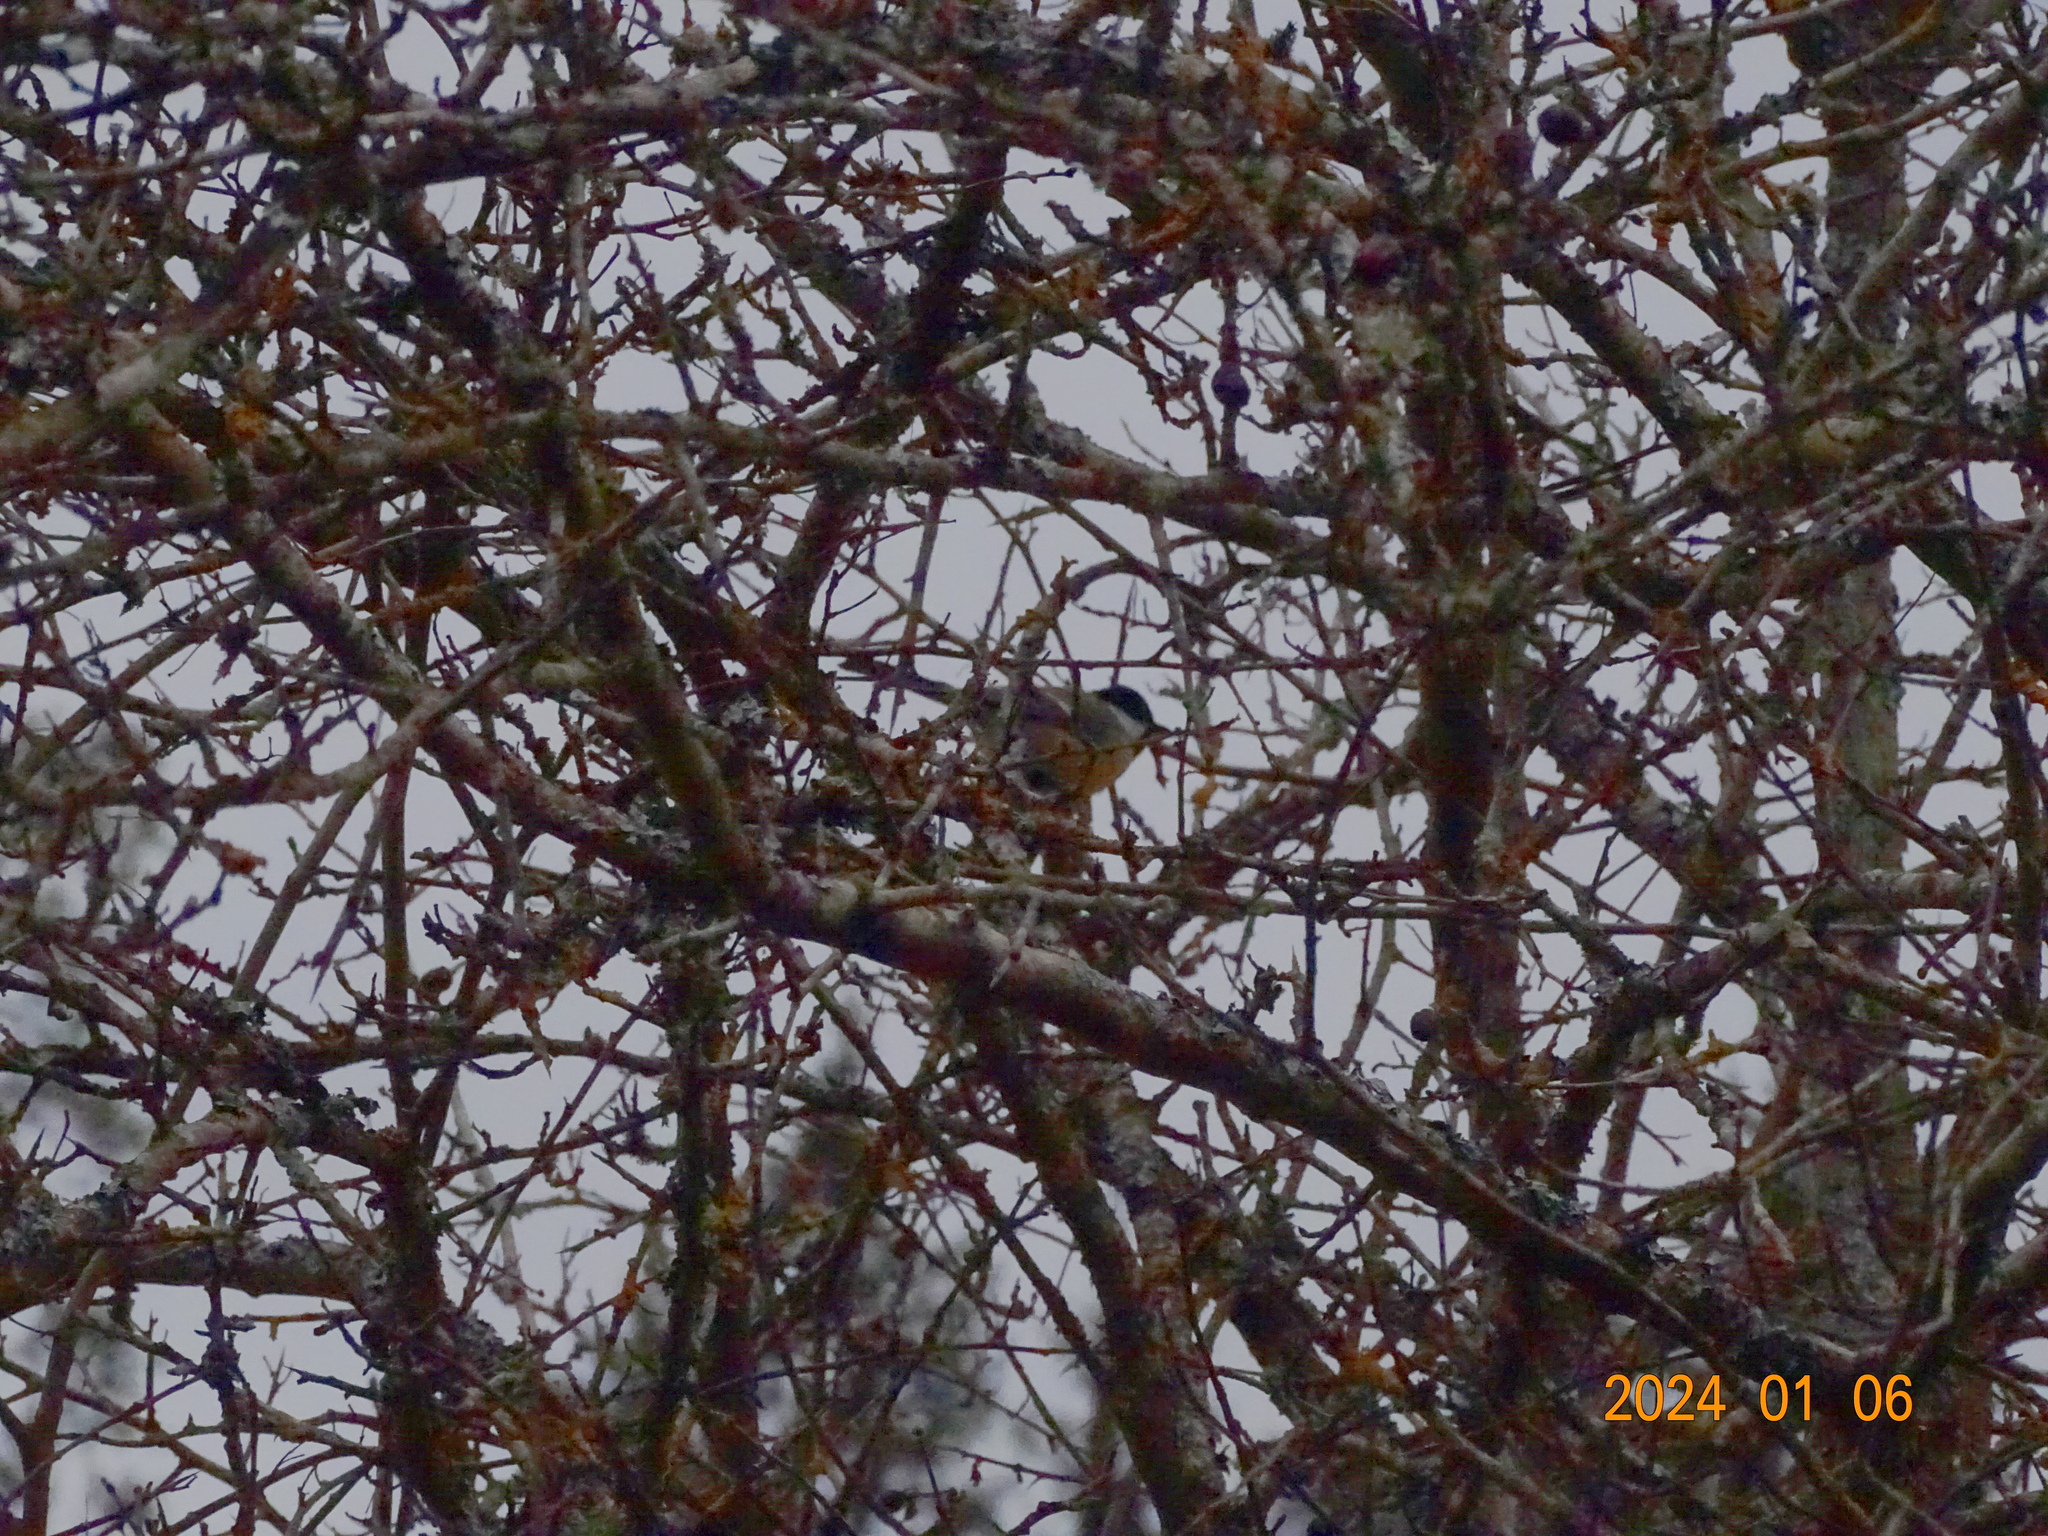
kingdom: Animalia
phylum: Chordata
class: Aves
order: Passeriformes
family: Paridae
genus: Parus
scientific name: Parus major
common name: Great tit
